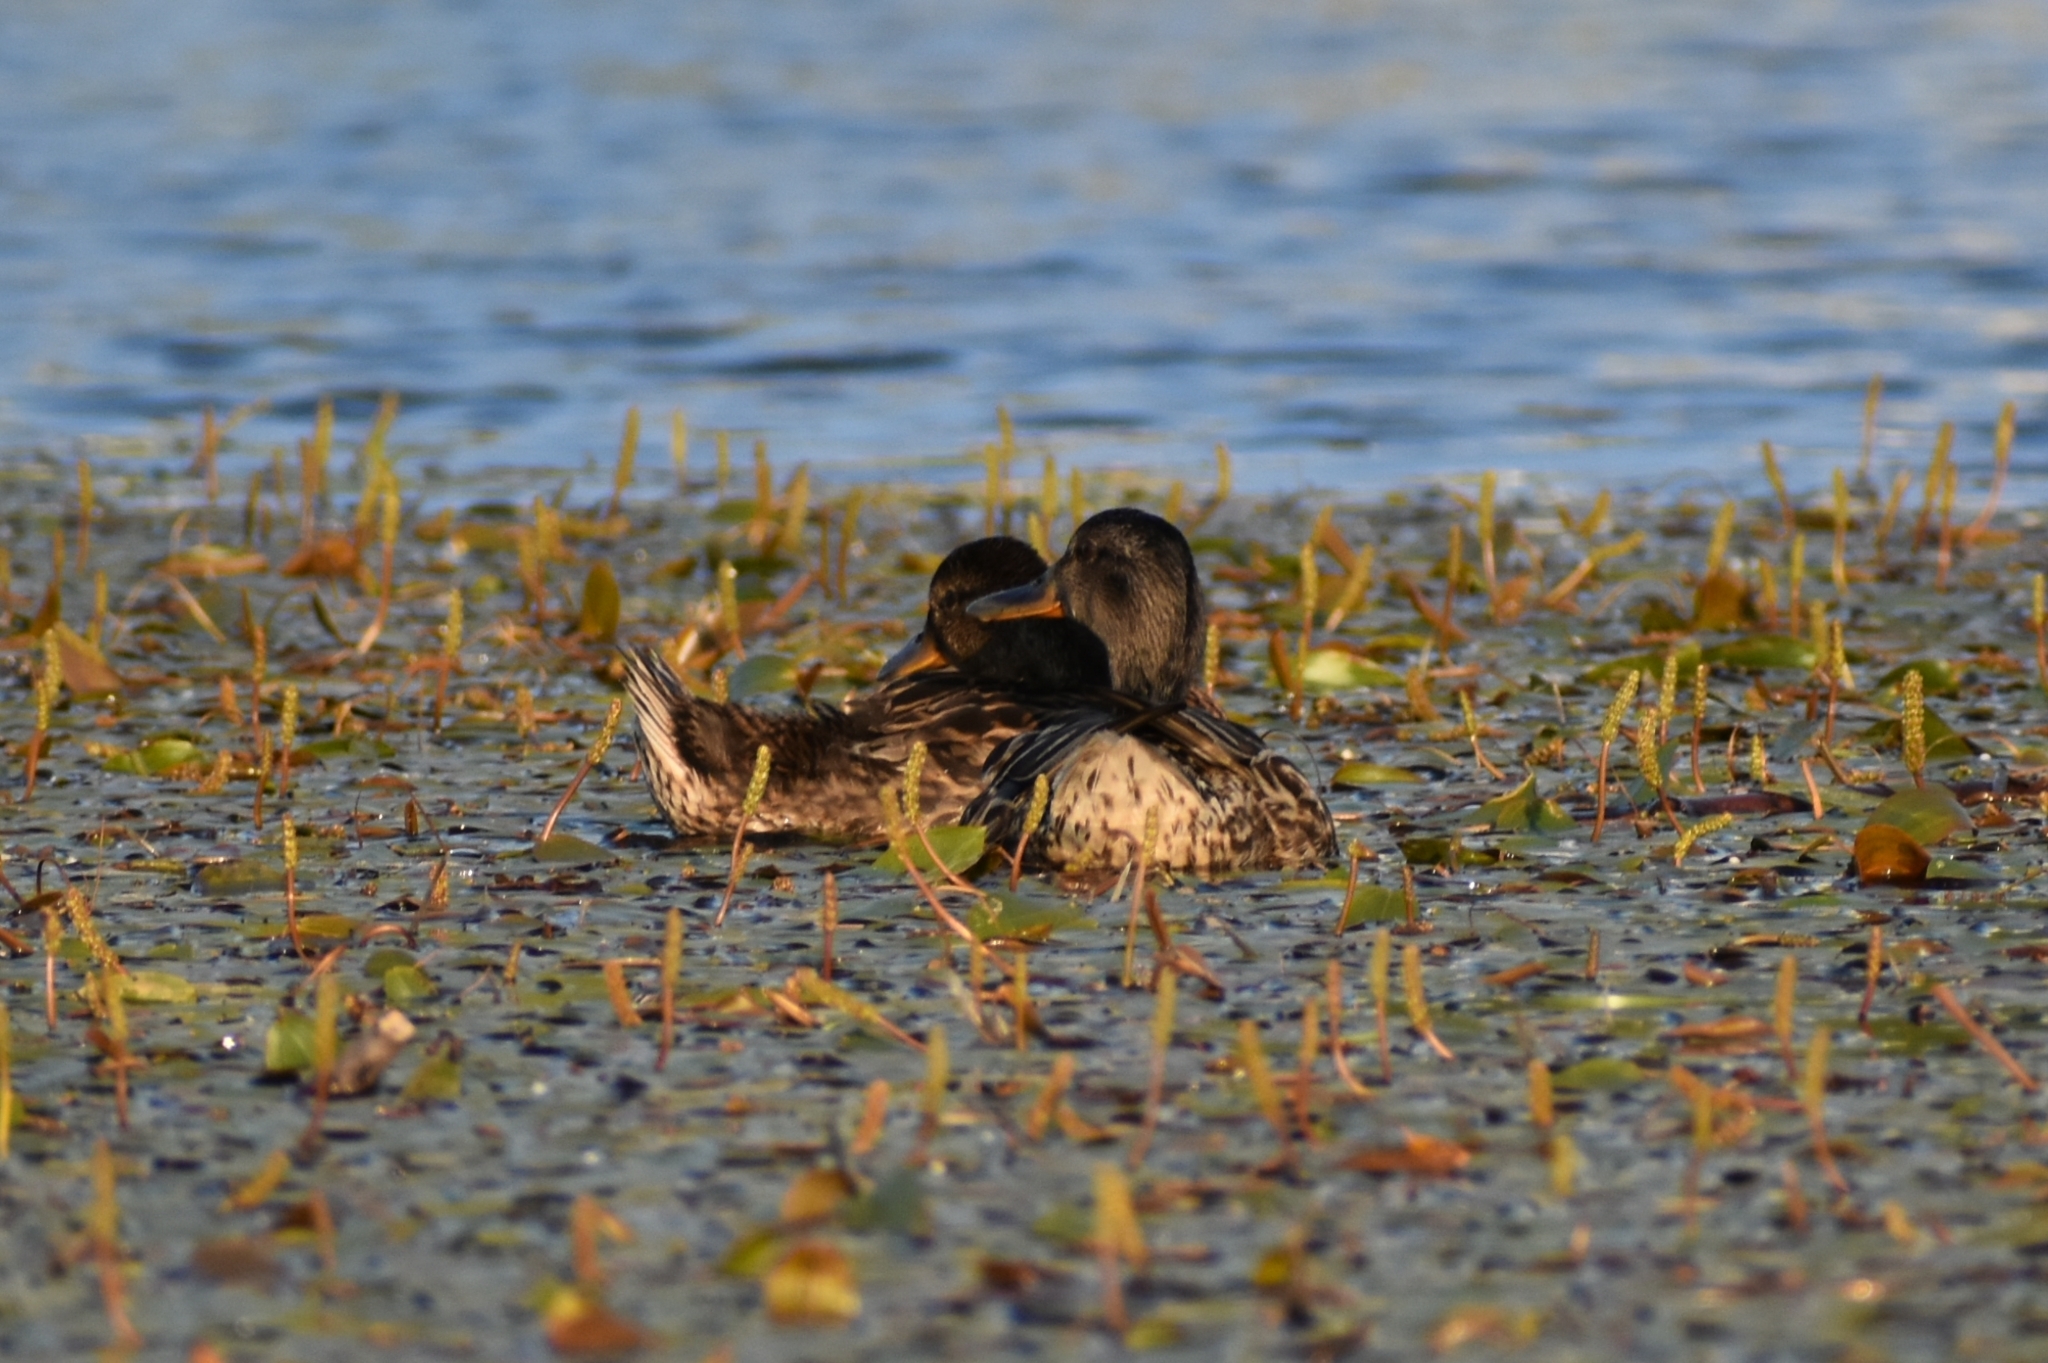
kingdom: Animalia
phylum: Chordata
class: Aves
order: Anseriformes
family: Anatidae
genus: Anas
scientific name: Anas platyrhynchos
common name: Mallard
